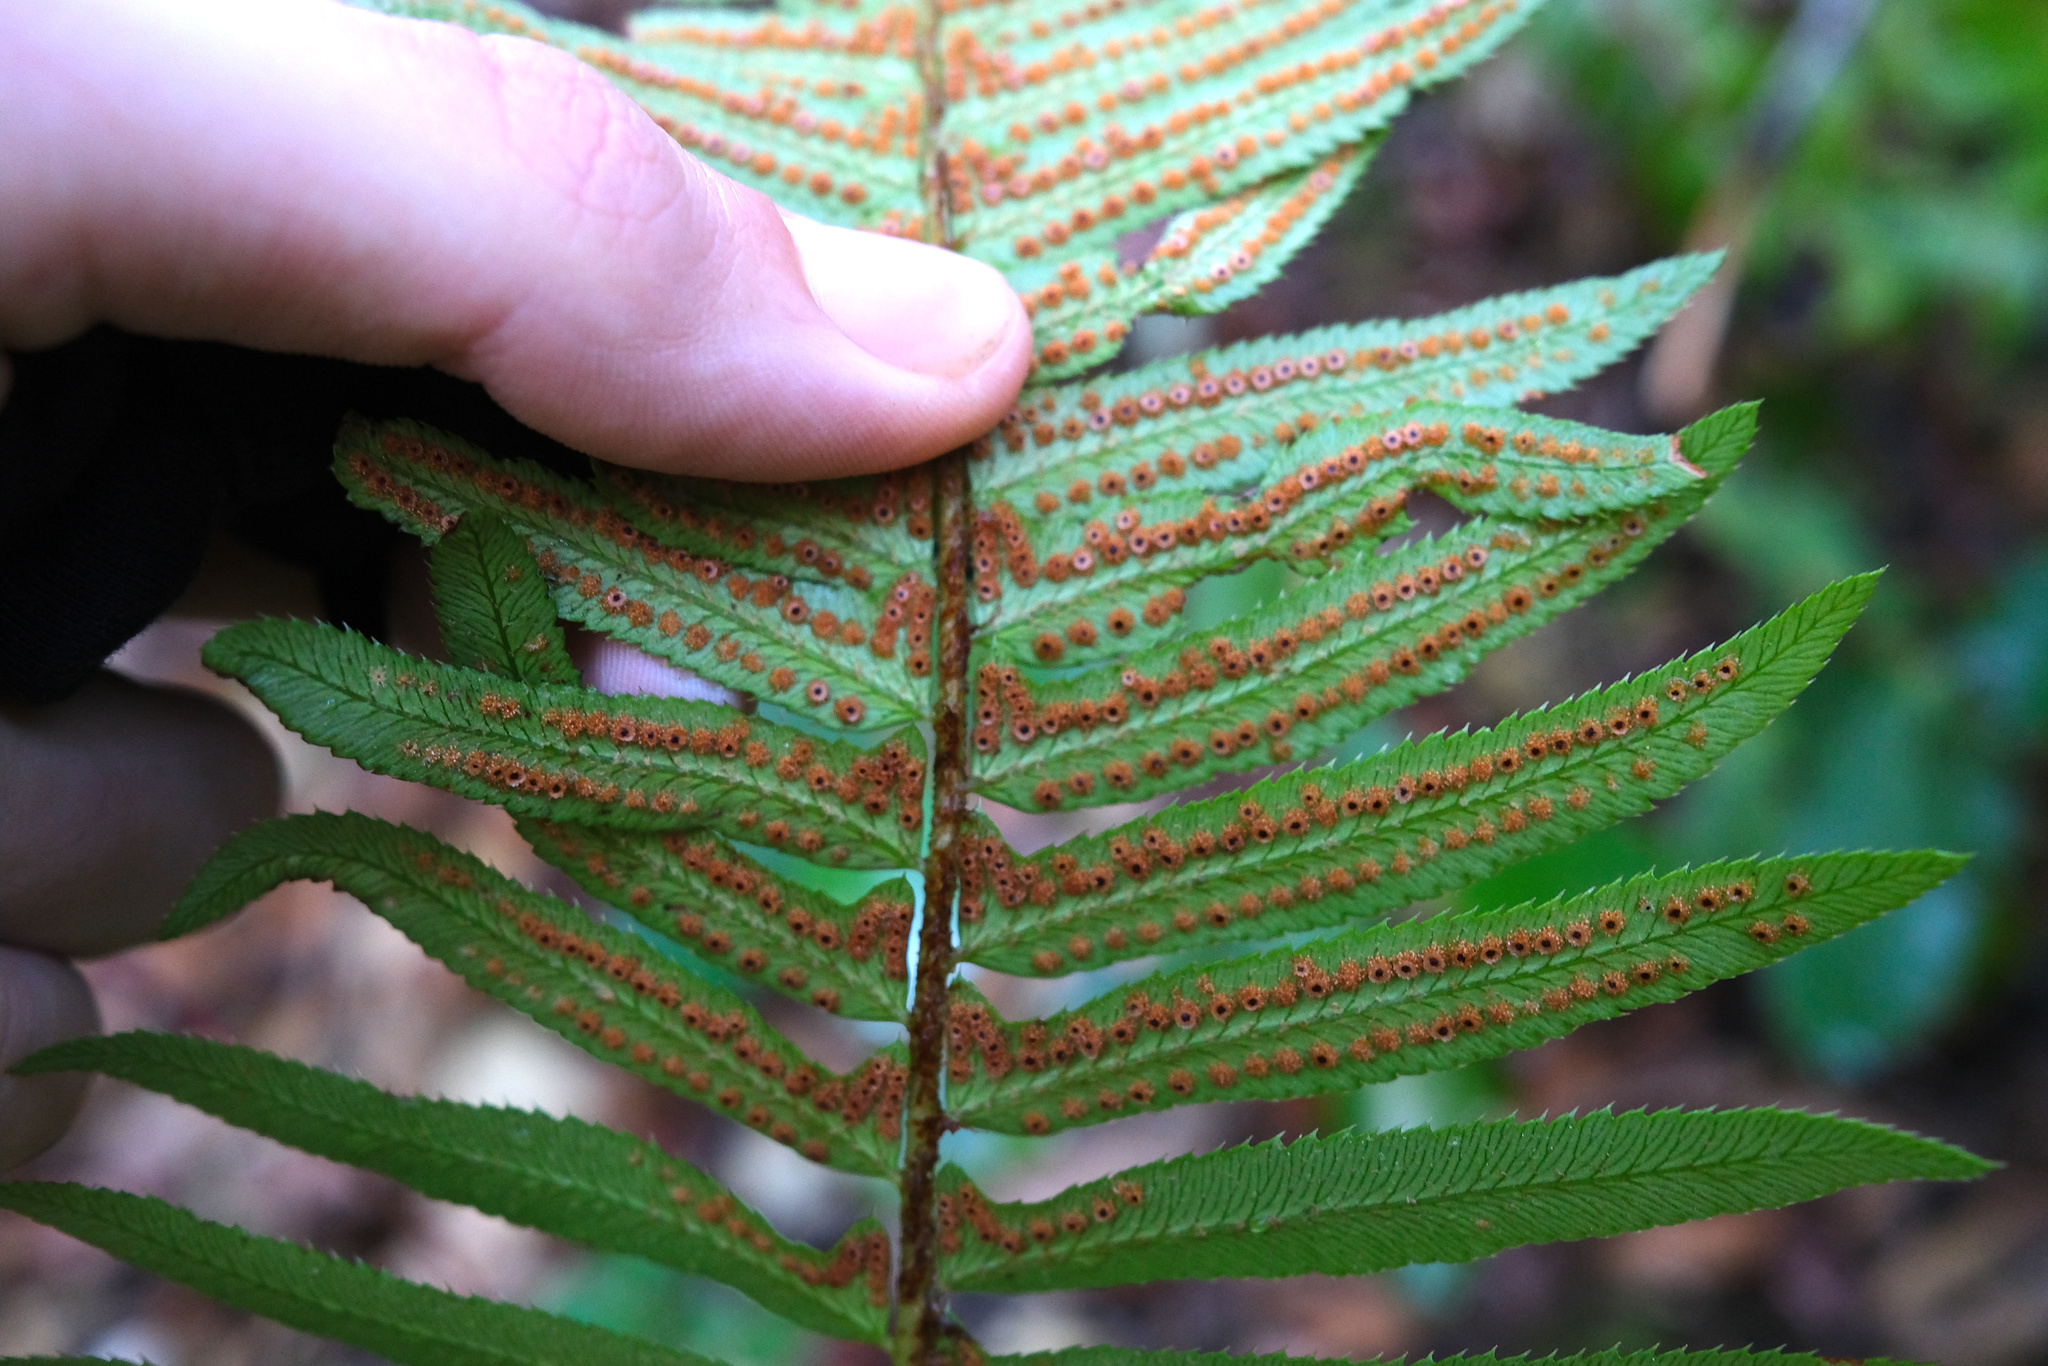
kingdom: Plantae
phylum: Tracheophyta
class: Polypodiopsida
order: Polypodiales
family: Dryopteridaceae
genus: Polystichum
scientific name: Polystichum munitum
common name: Western sword-fern
